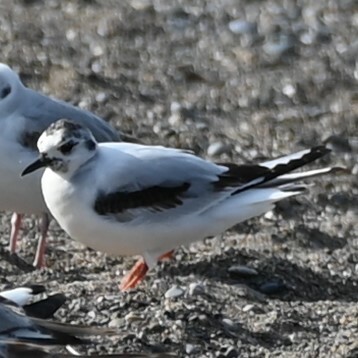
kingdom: Animalia
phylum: Chordata
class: Aves
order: Charadriiformes
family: Laridae
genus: Hydrocoloeus
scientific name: Hydrocoloeus minutus
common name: Little gull
